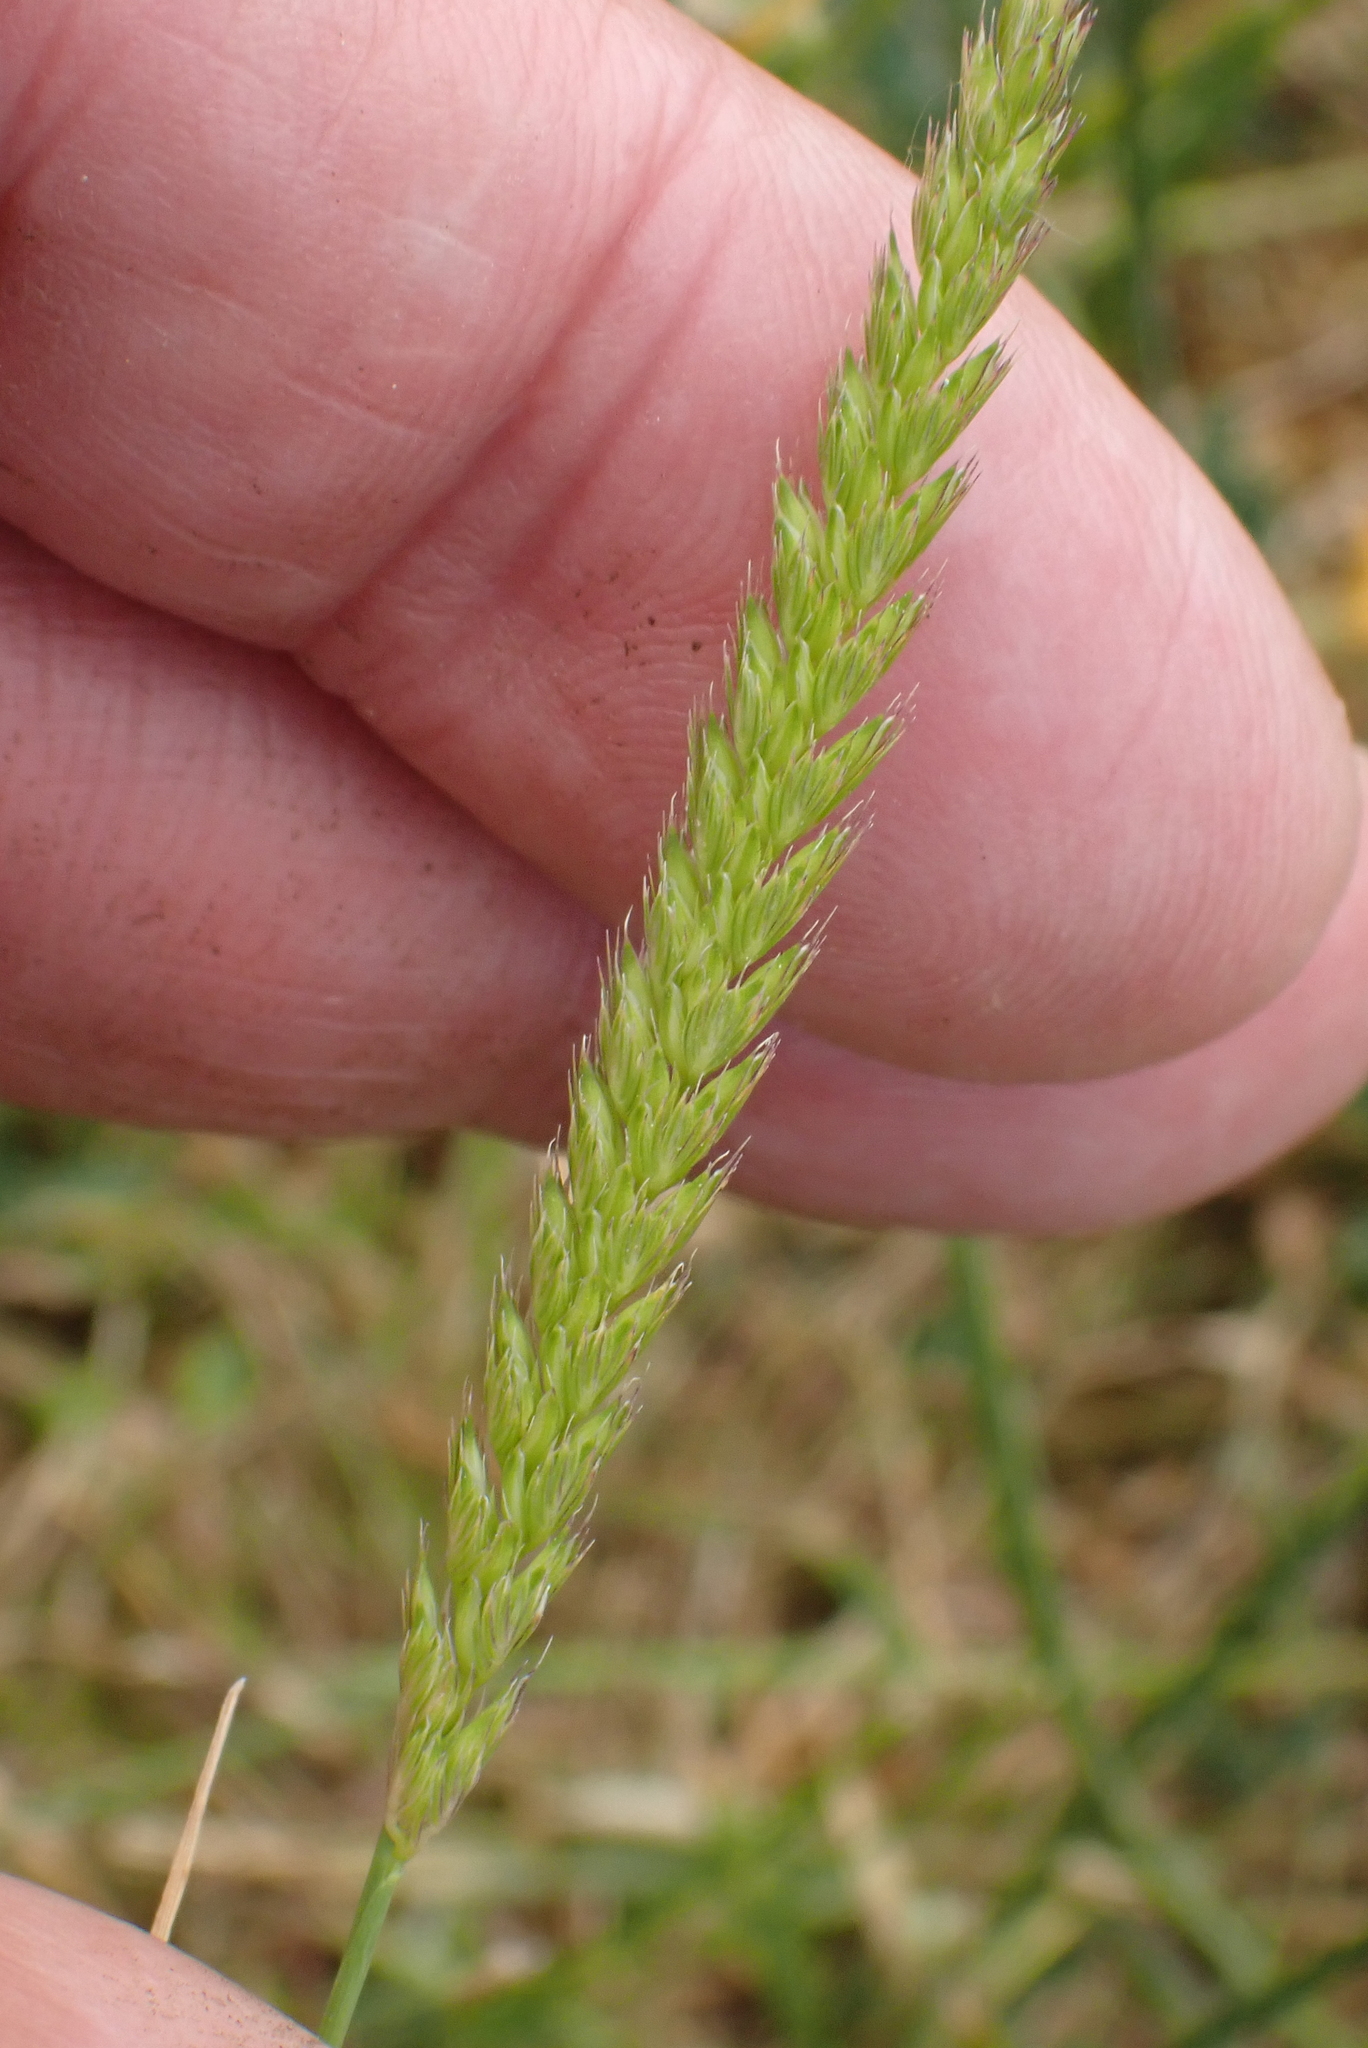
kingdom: Plantae
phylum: Tracheophyta
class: Liliopsida
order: Poales
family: Poaceae
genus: Cynosurus
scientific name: Cynosurus cristatus
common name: Crested dog's-tail
